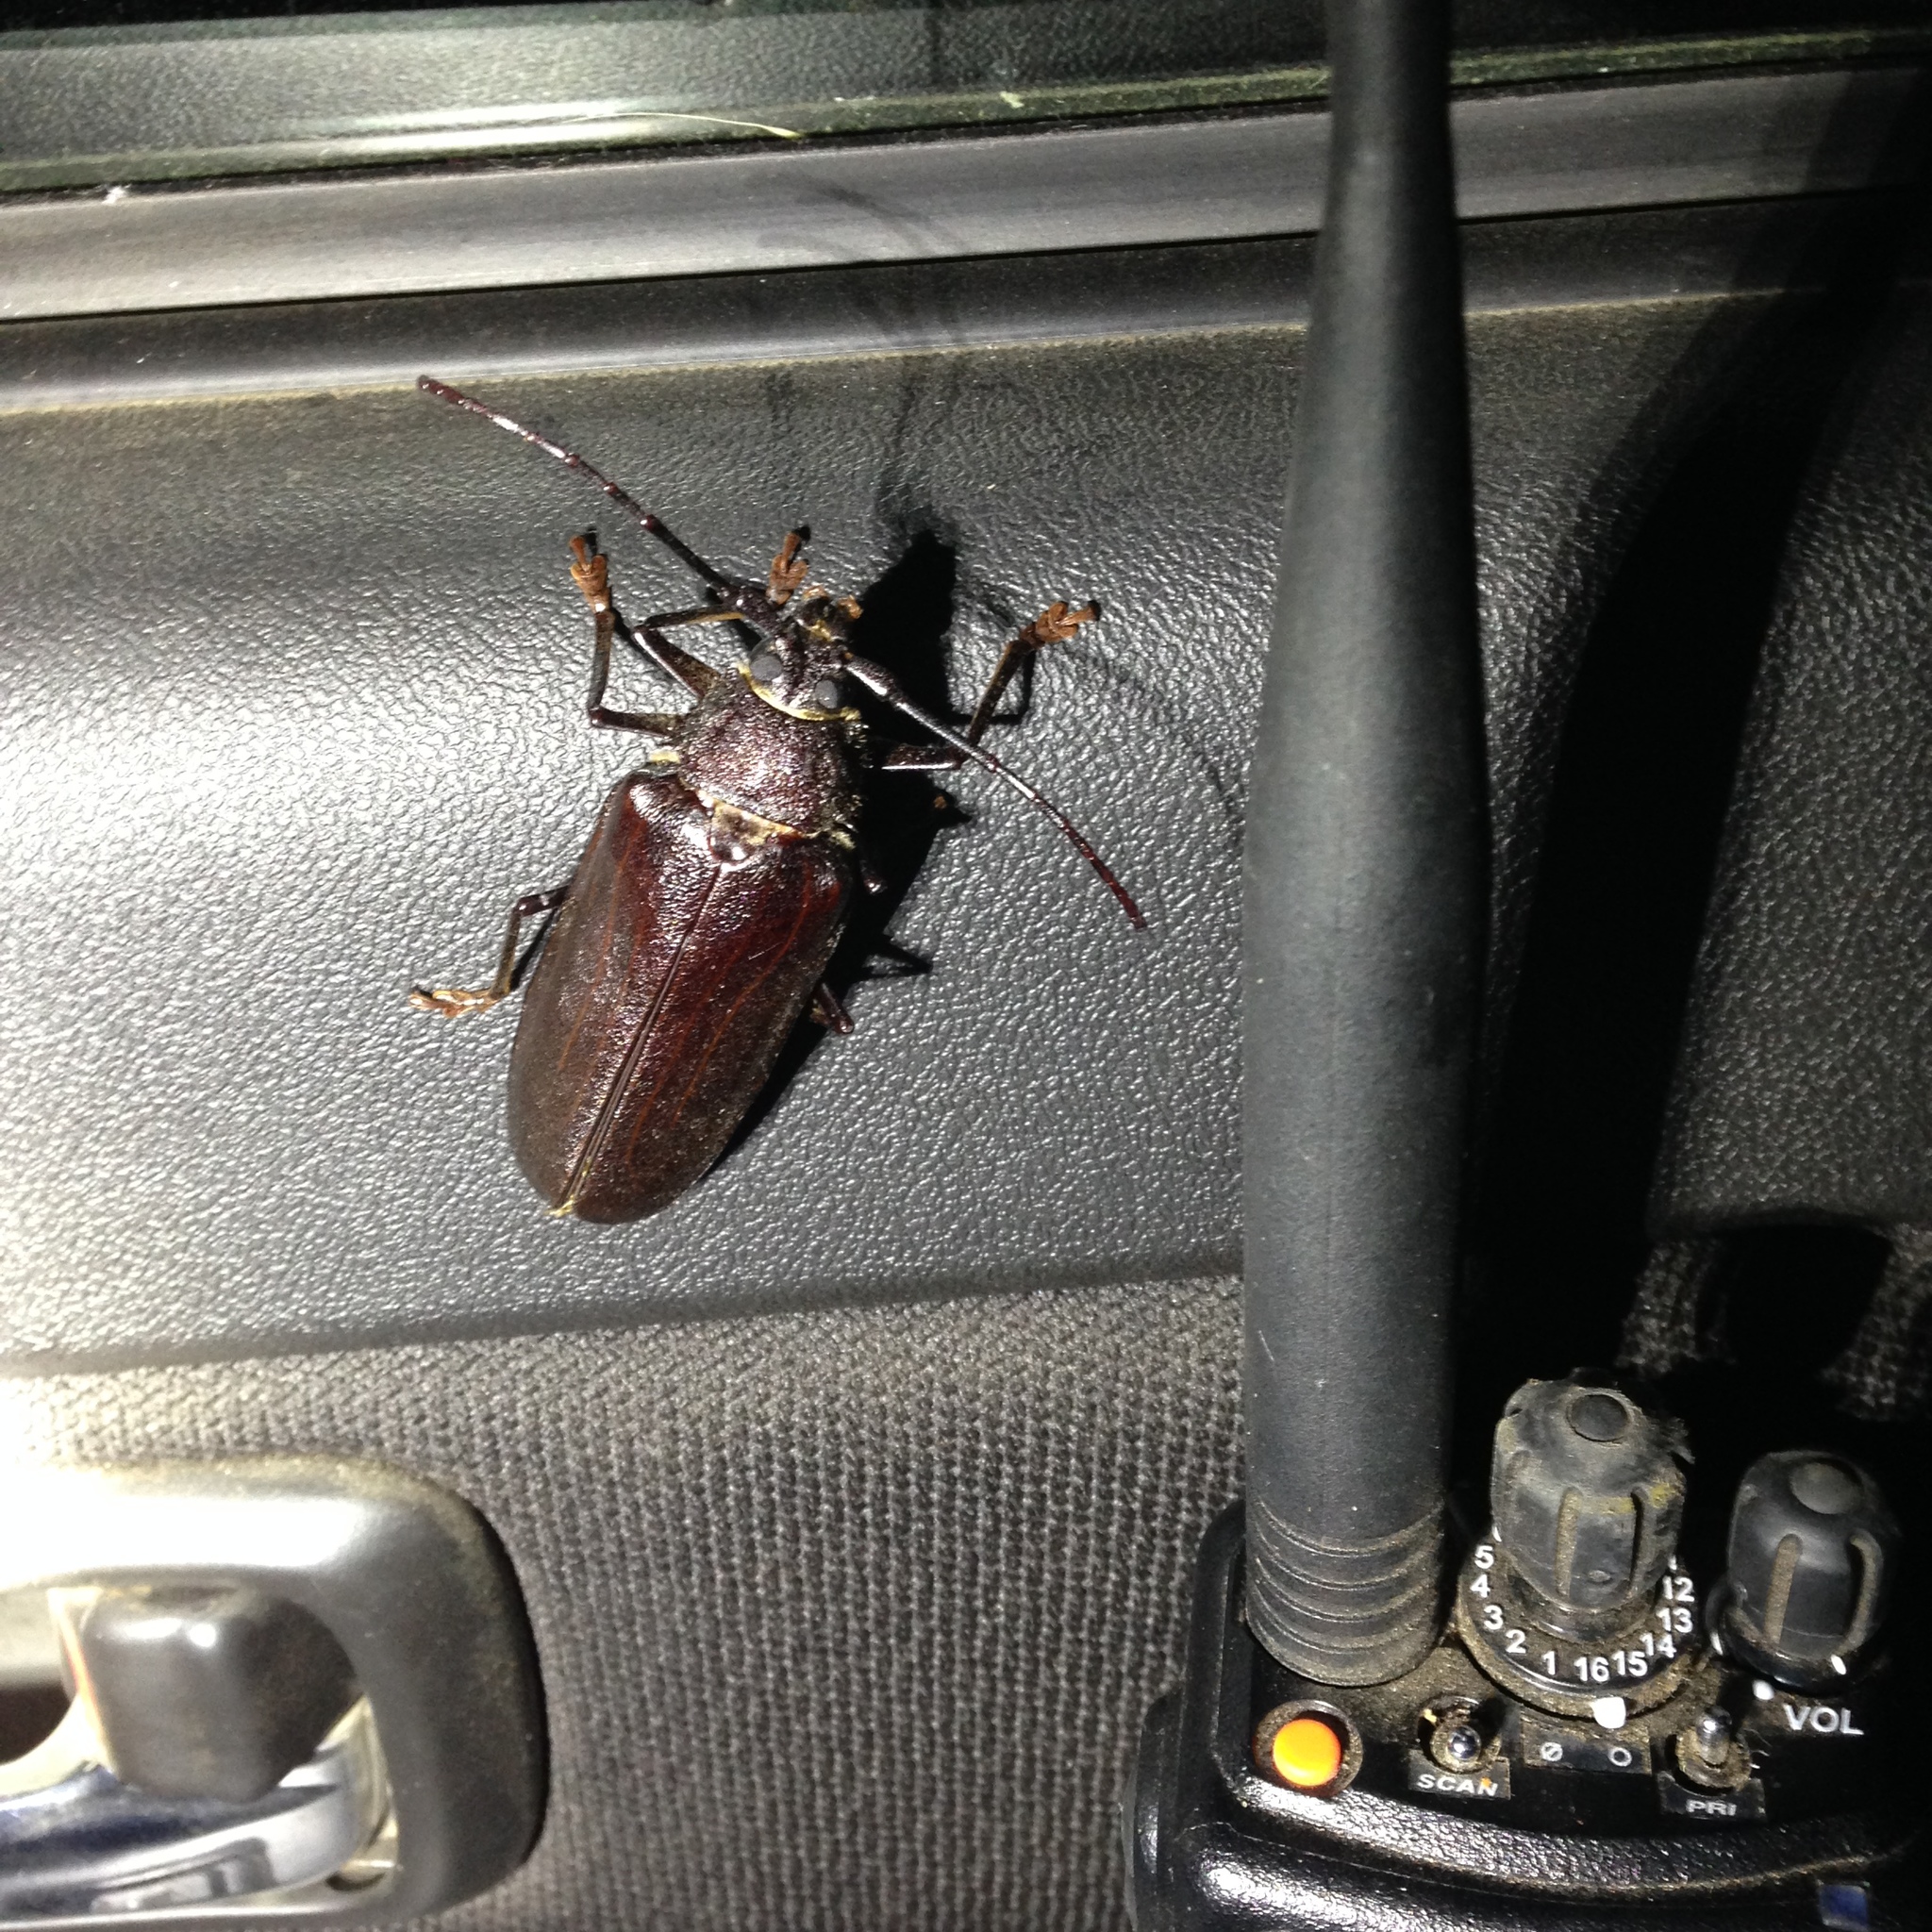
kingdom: Animalia
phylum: Arthropoda
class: Insecta
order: Coleoptera
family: Cerambycidae
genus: Trichocnemis
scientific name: Trichocnemis spiculatus
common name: Long-horned beetle
